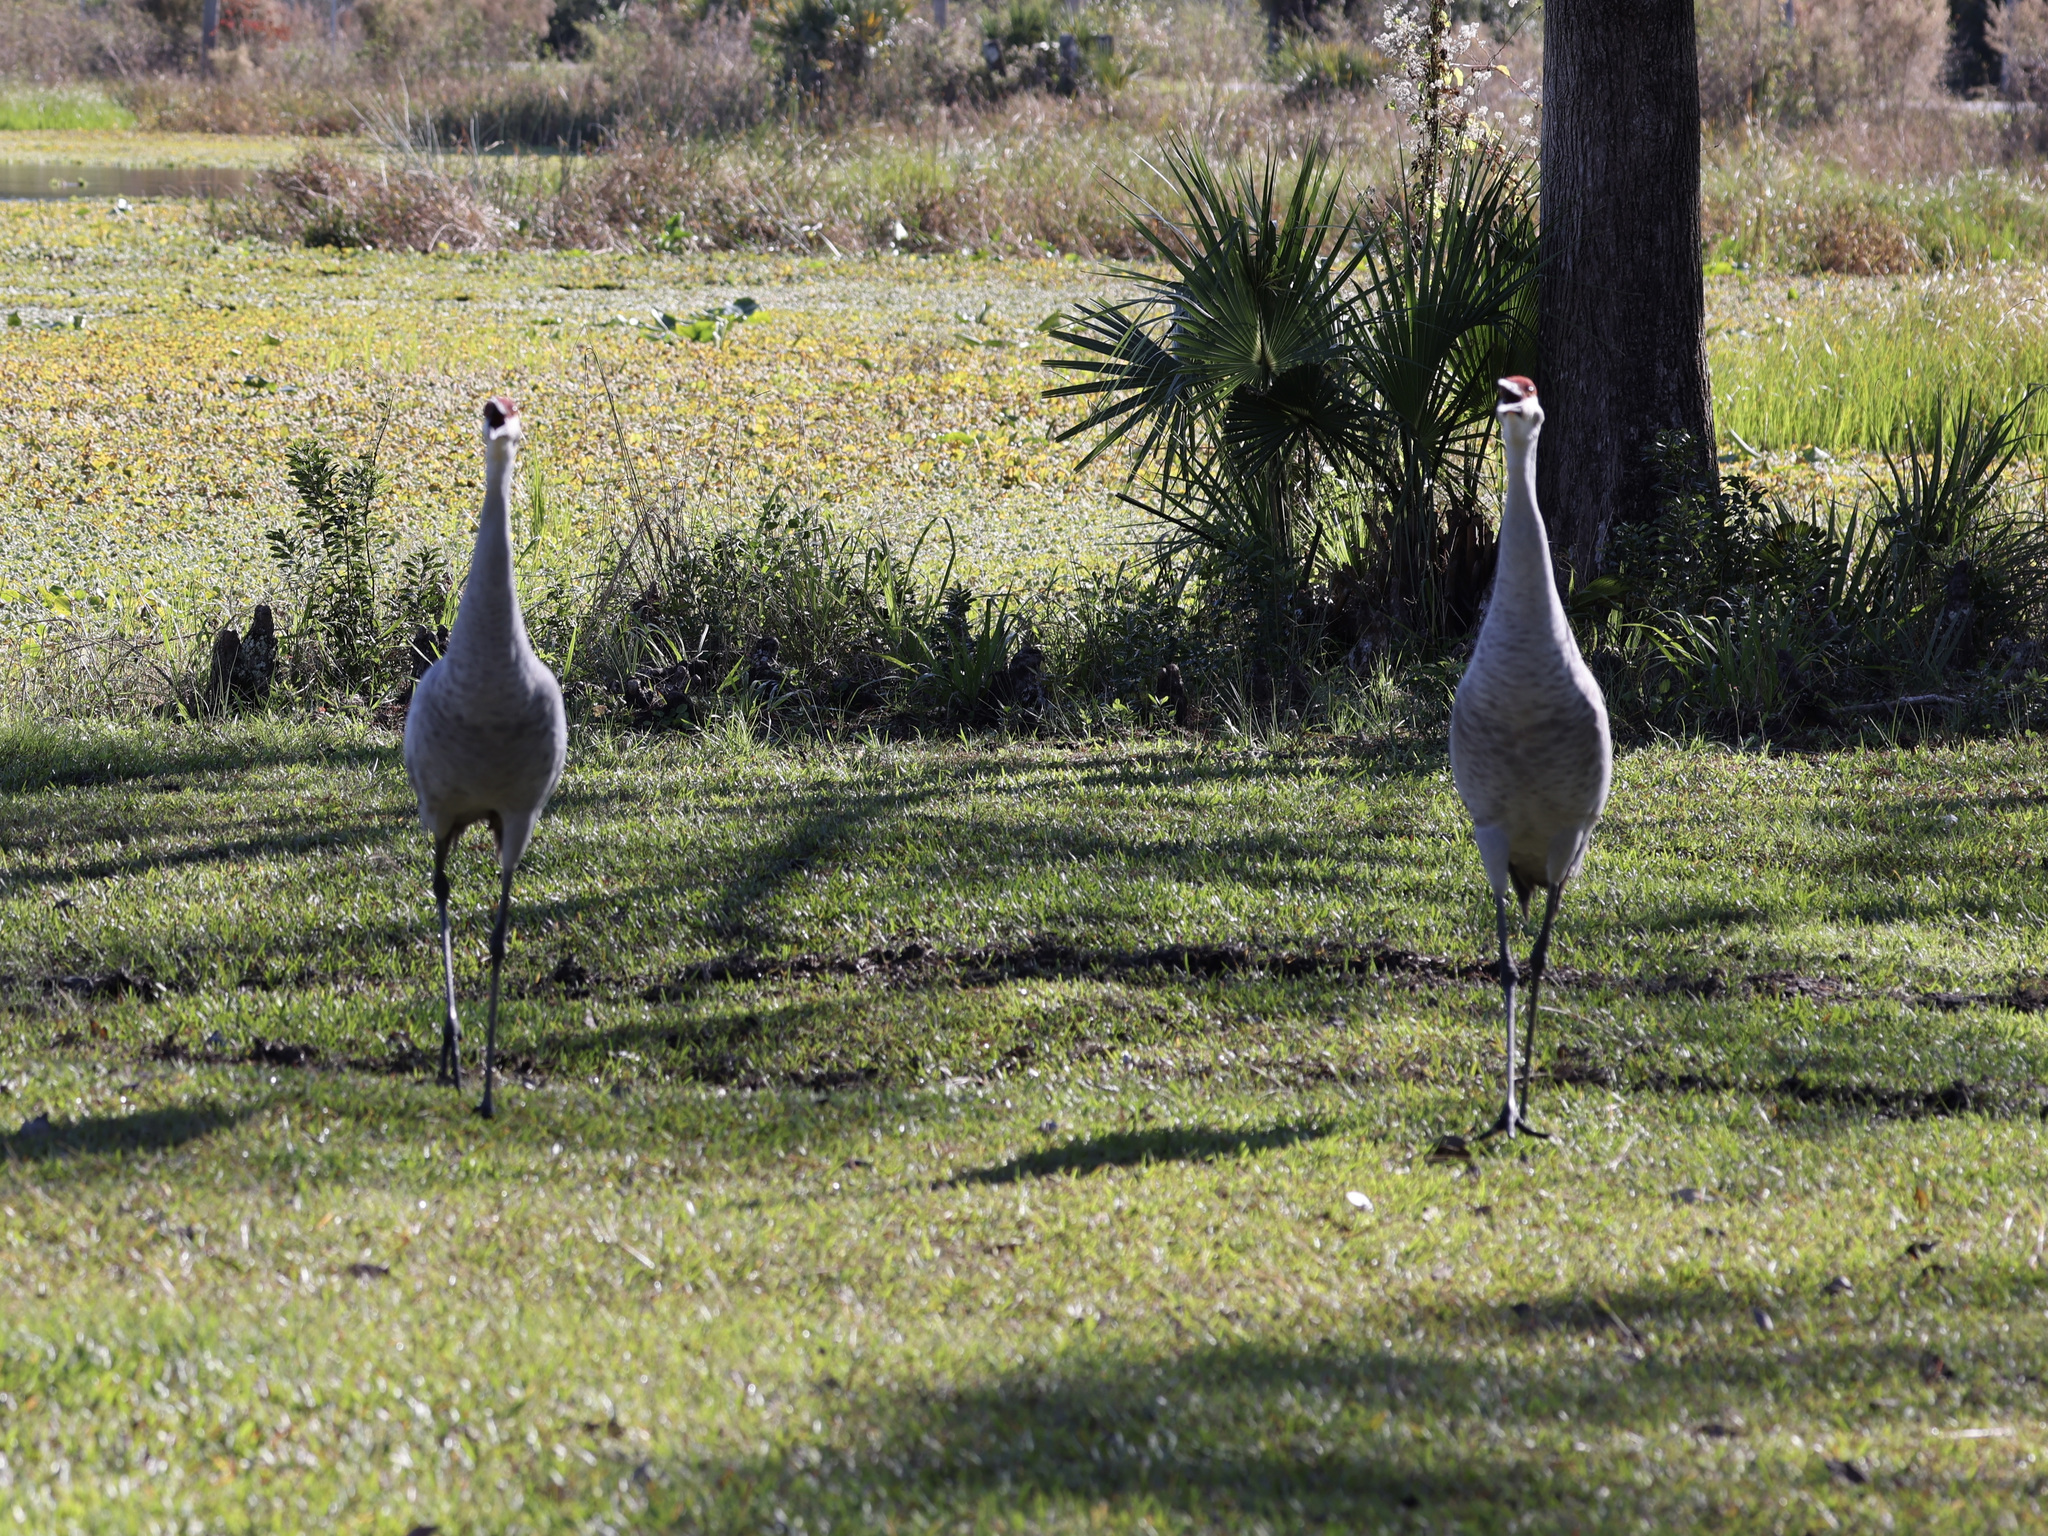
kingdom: Animalia
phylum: Chordata
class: Aves
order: Gruiformes
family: Gruidae
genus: Grus
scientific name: Grus canadensis
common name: Sandhill crane
